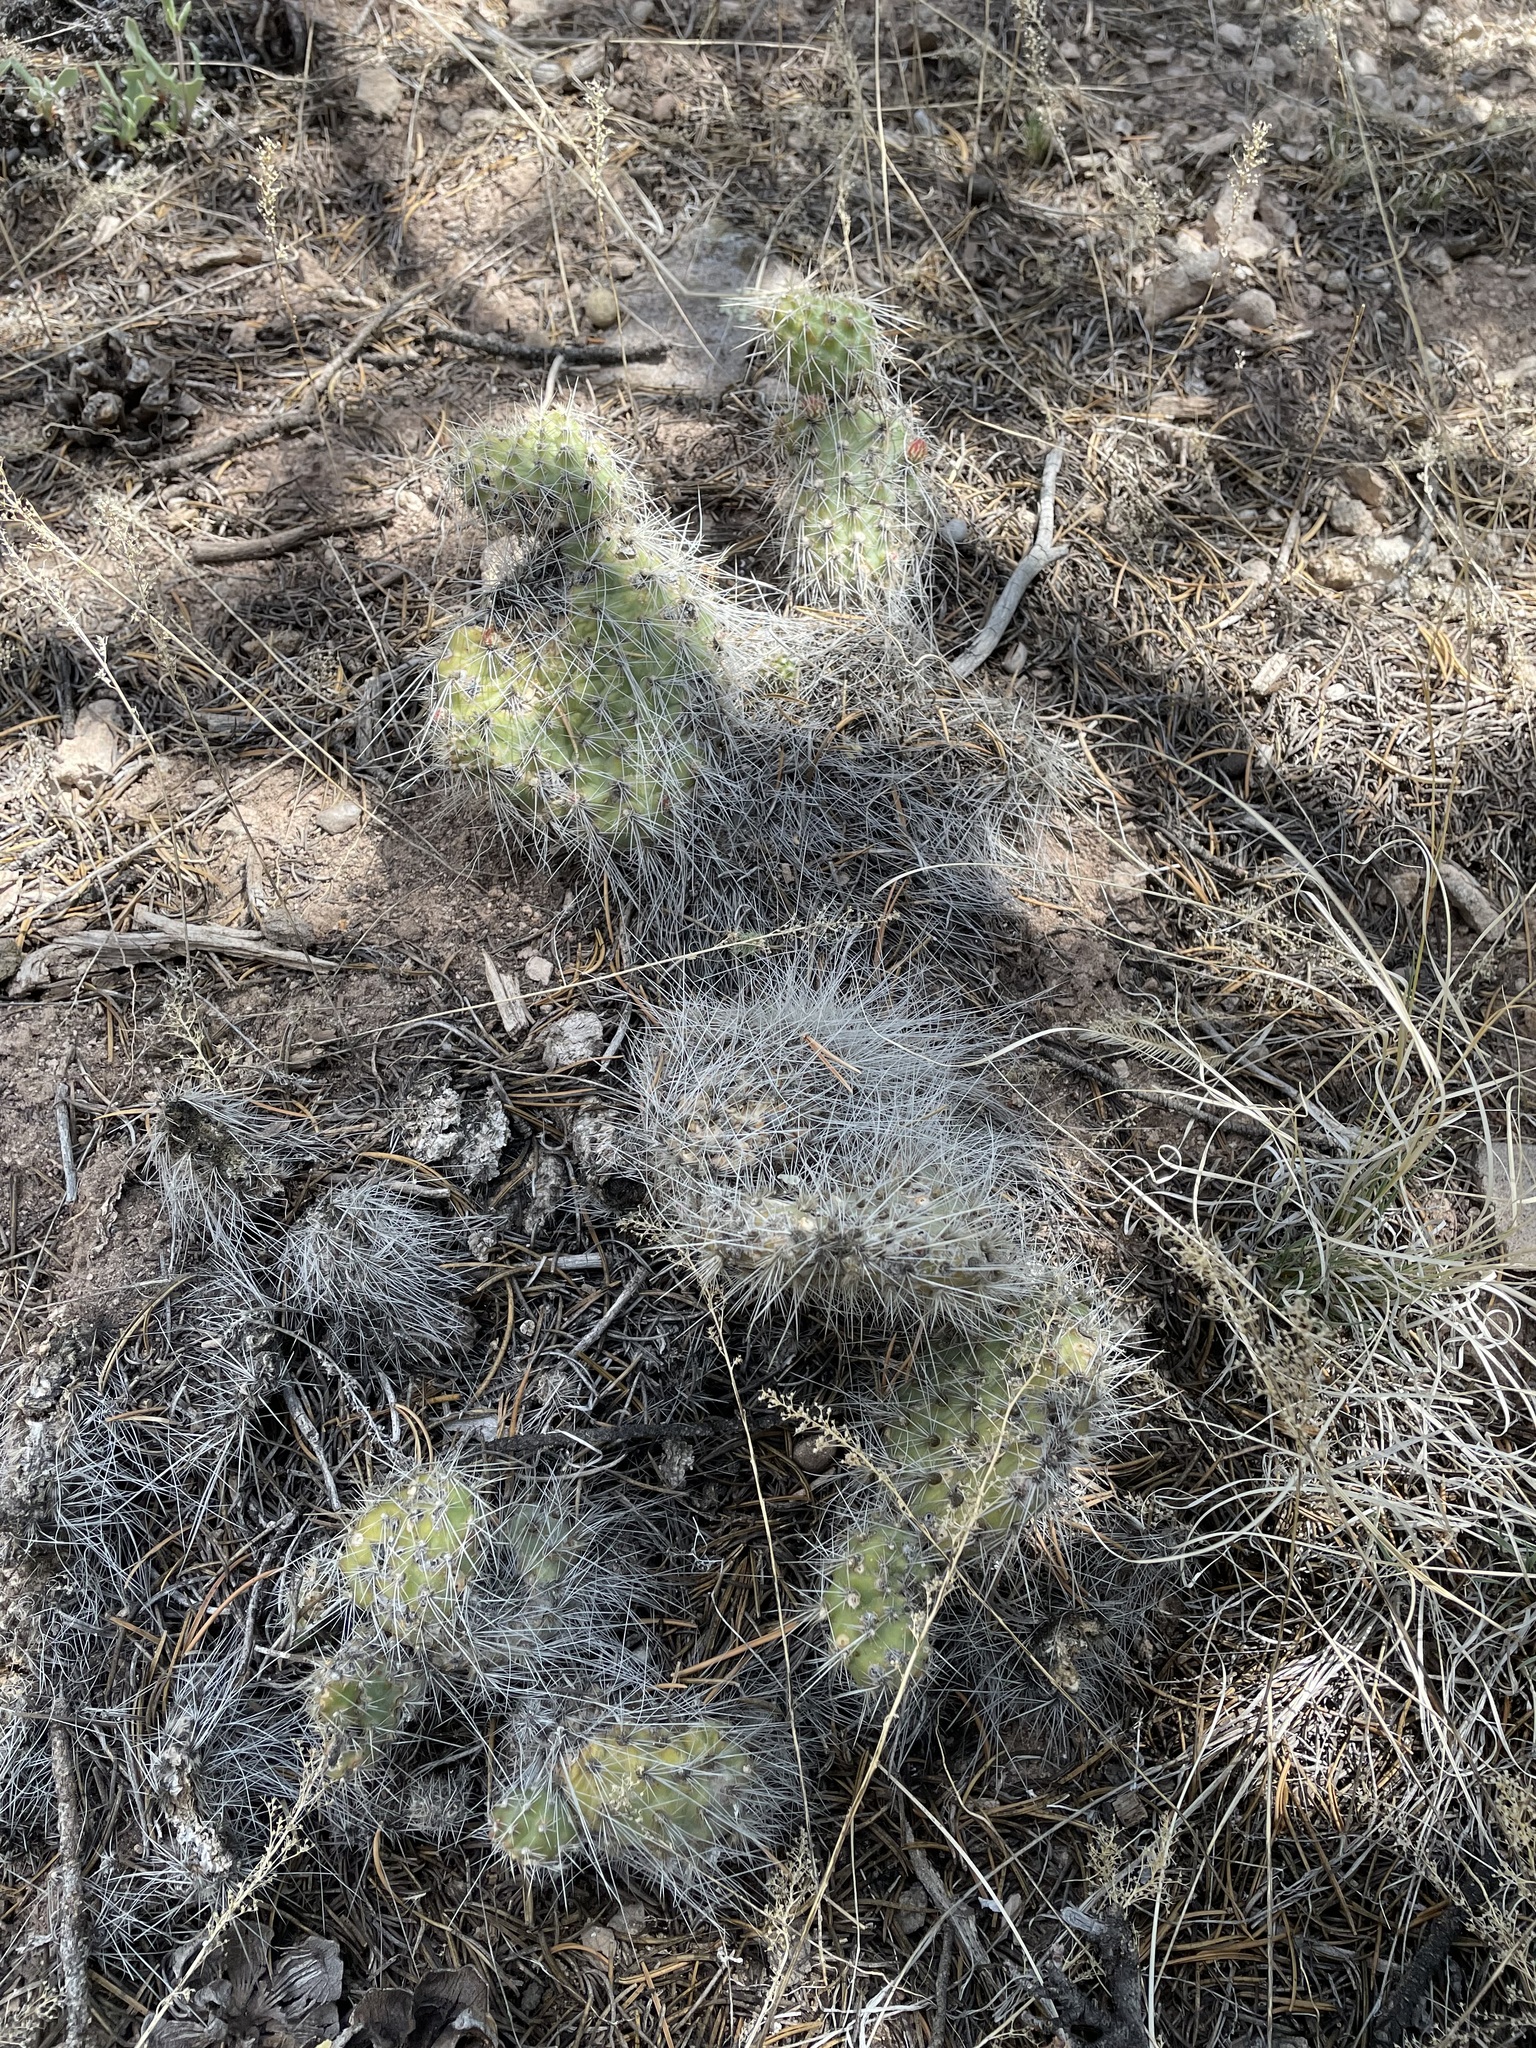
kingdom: Plantae
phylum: Tracheophyta
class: Magnoliopsida
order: Caryophyllales
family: Cactaceae
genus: Opuntia
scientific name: Opuntia polyacantha
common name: Plains prickly-pear
